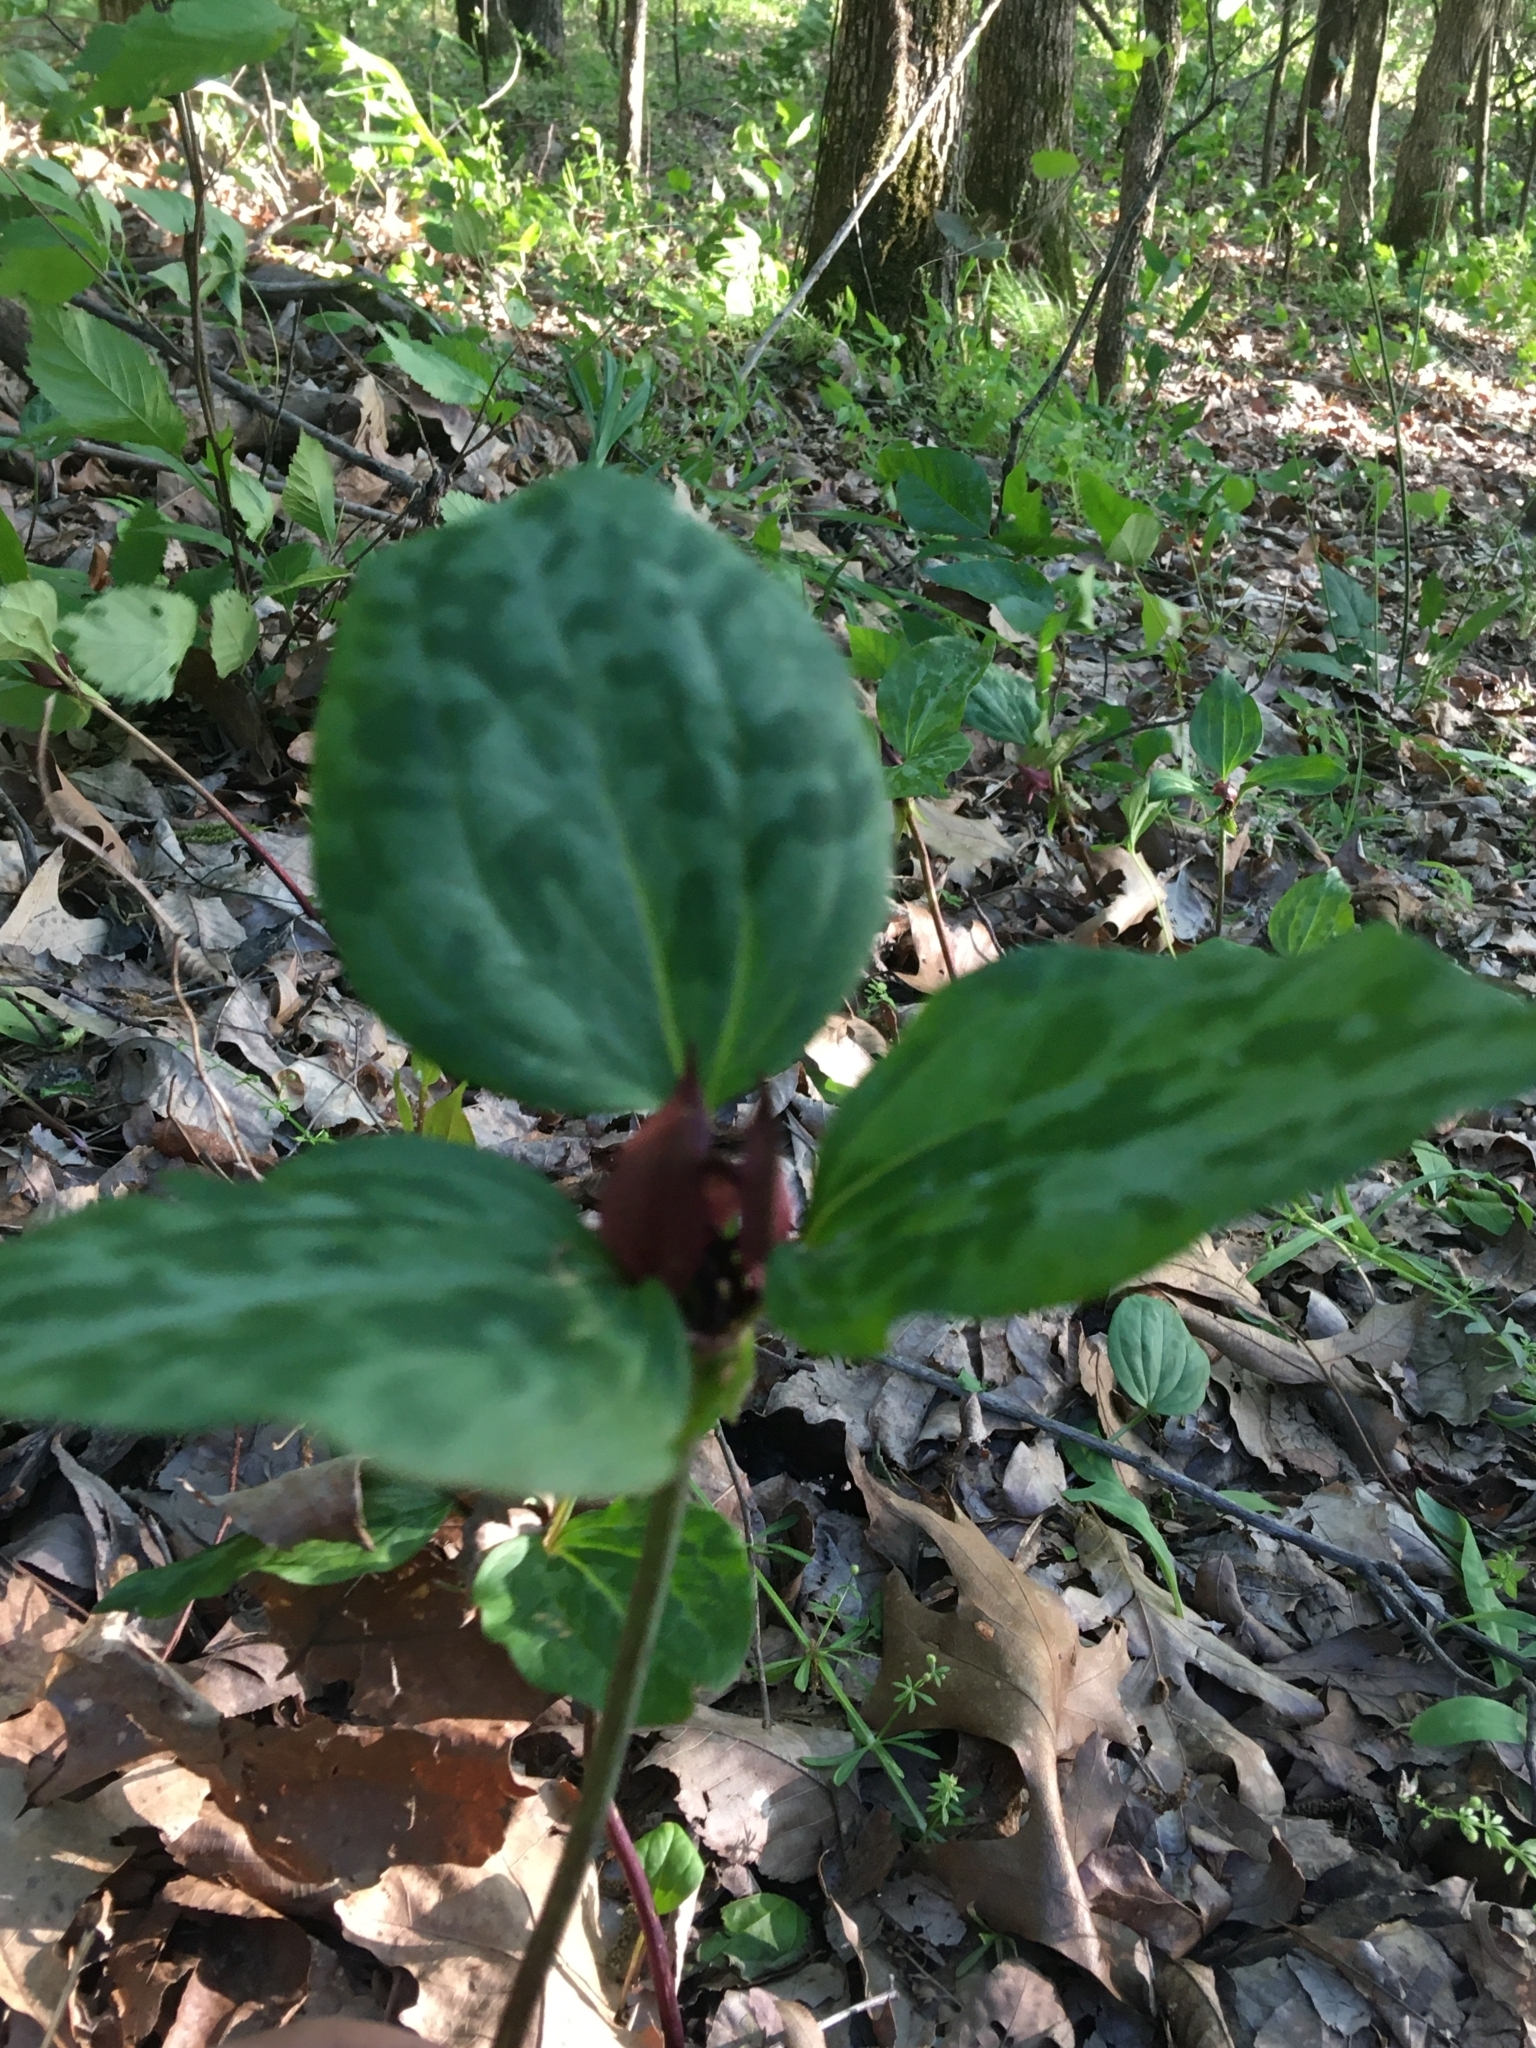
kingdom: Plantae
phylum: Tracheophyta
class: Liliopsida
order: Liliales
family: Melanthiaceae
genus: Trillium
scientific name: Trillium recurvatum
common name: Bloody butcher
